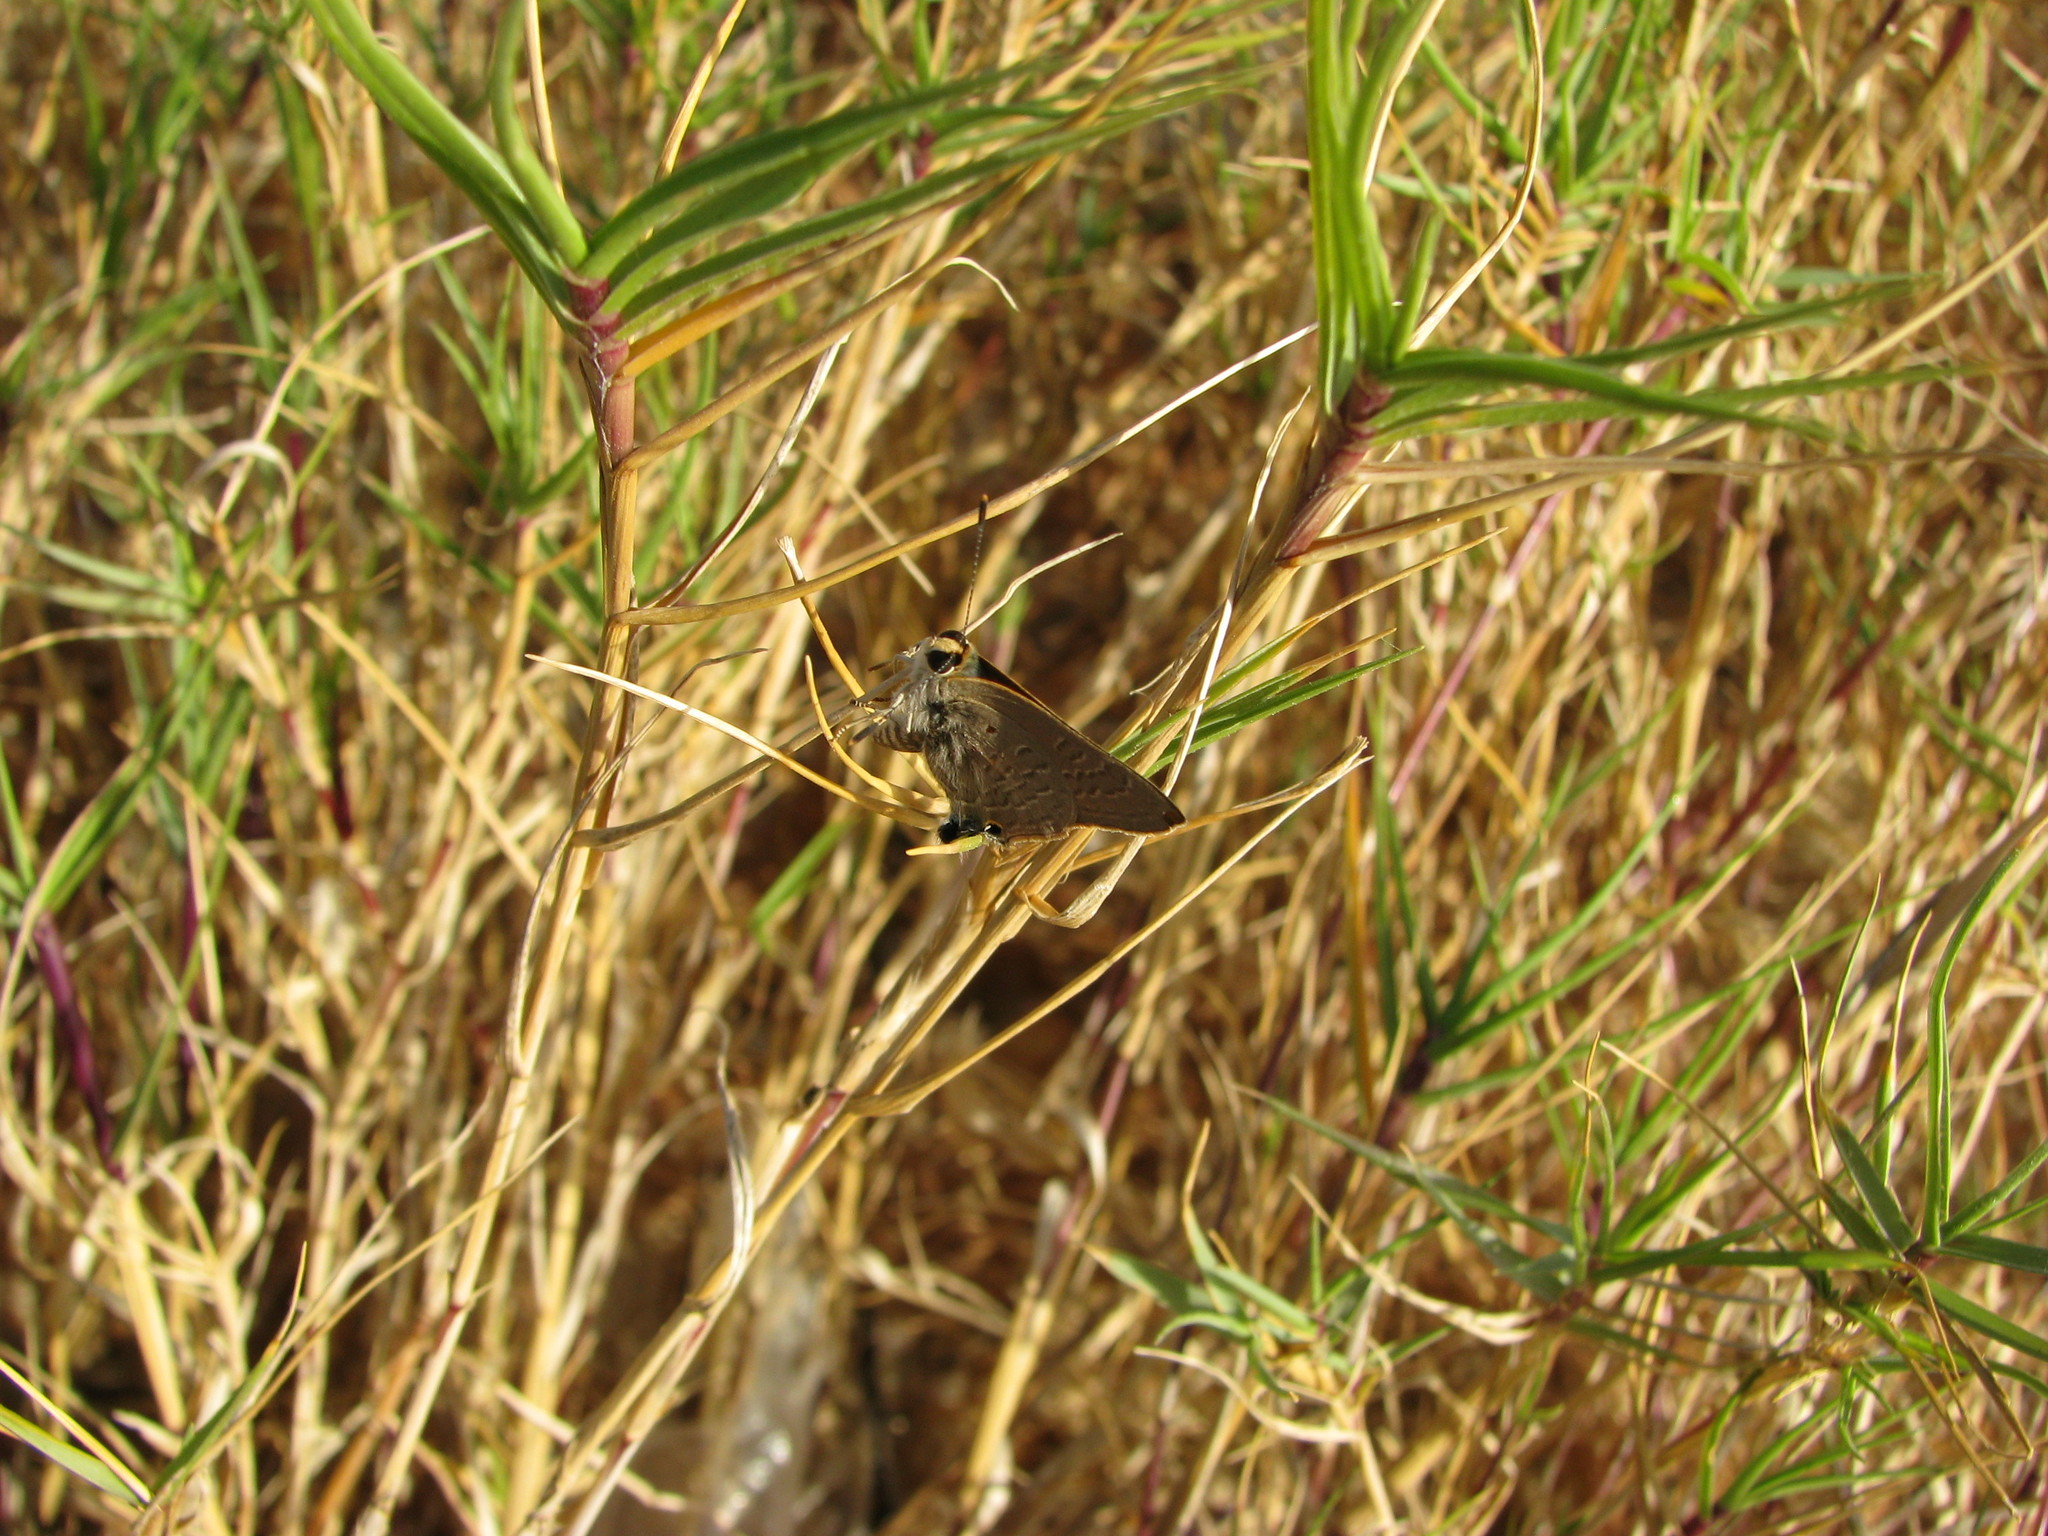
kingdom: Animalia
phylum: Arthropoda
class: Insecta
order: Lepidoptera
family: Lycaenidae
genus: Deudorix
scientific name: Deudorix antalus
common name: Brown playboy
